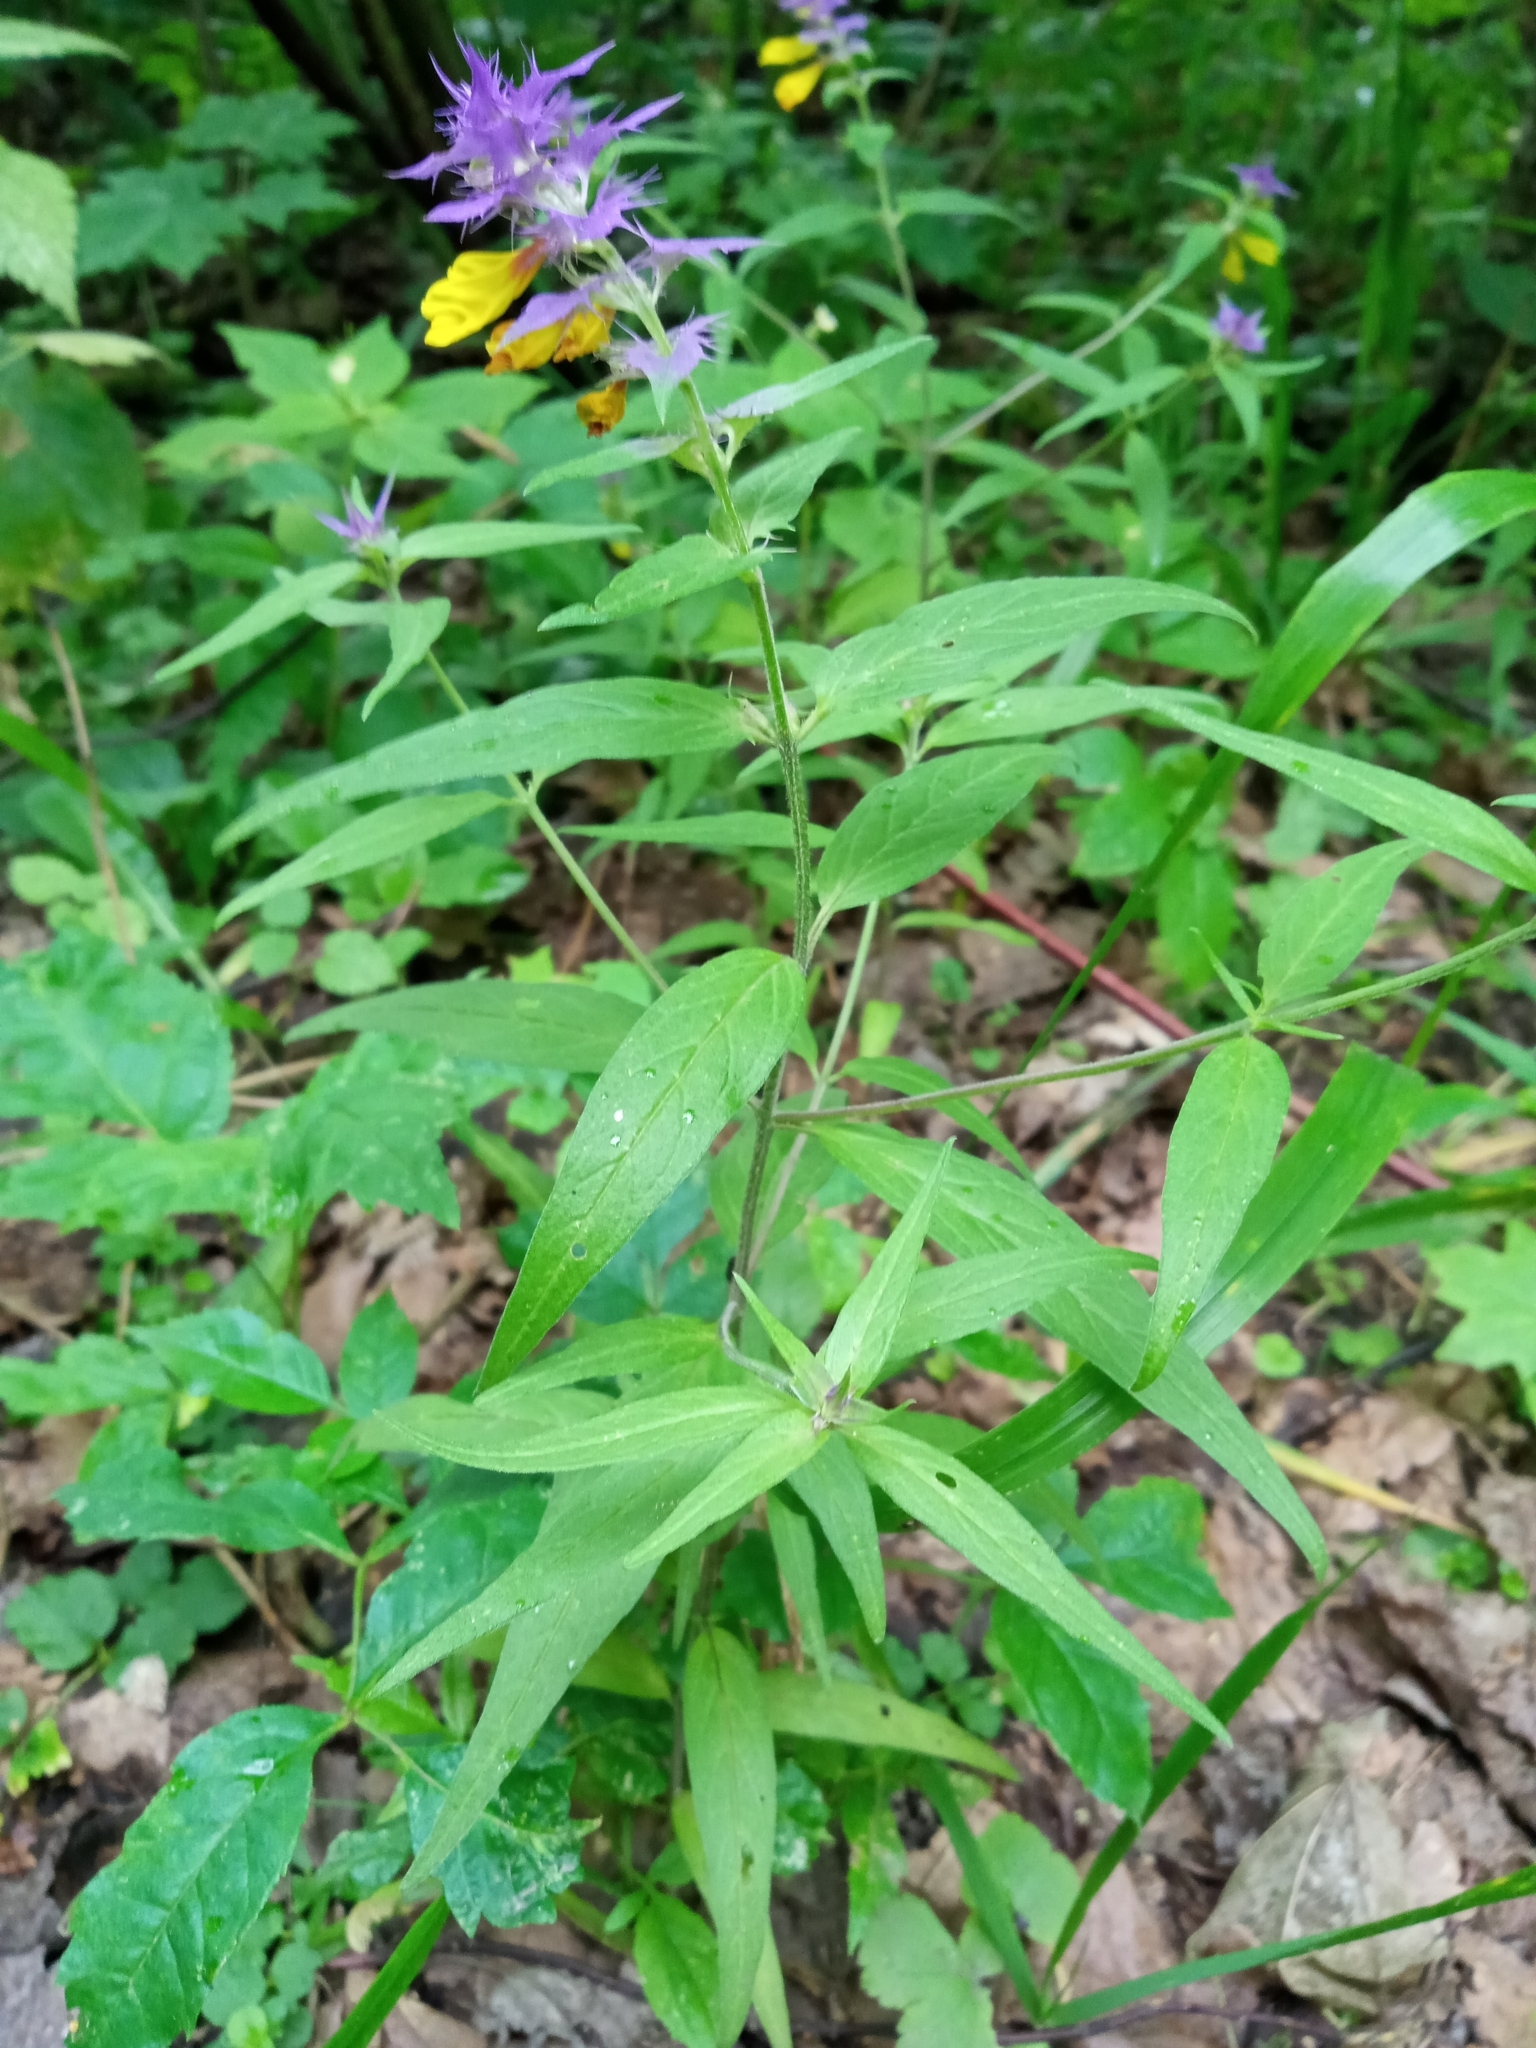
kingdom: Plantae
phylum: Tracheophyta
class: Magnoliopsida
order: Lamiales
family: Orobanchaceae
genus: Melampyrum
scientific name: Melampyrum nemorosum
